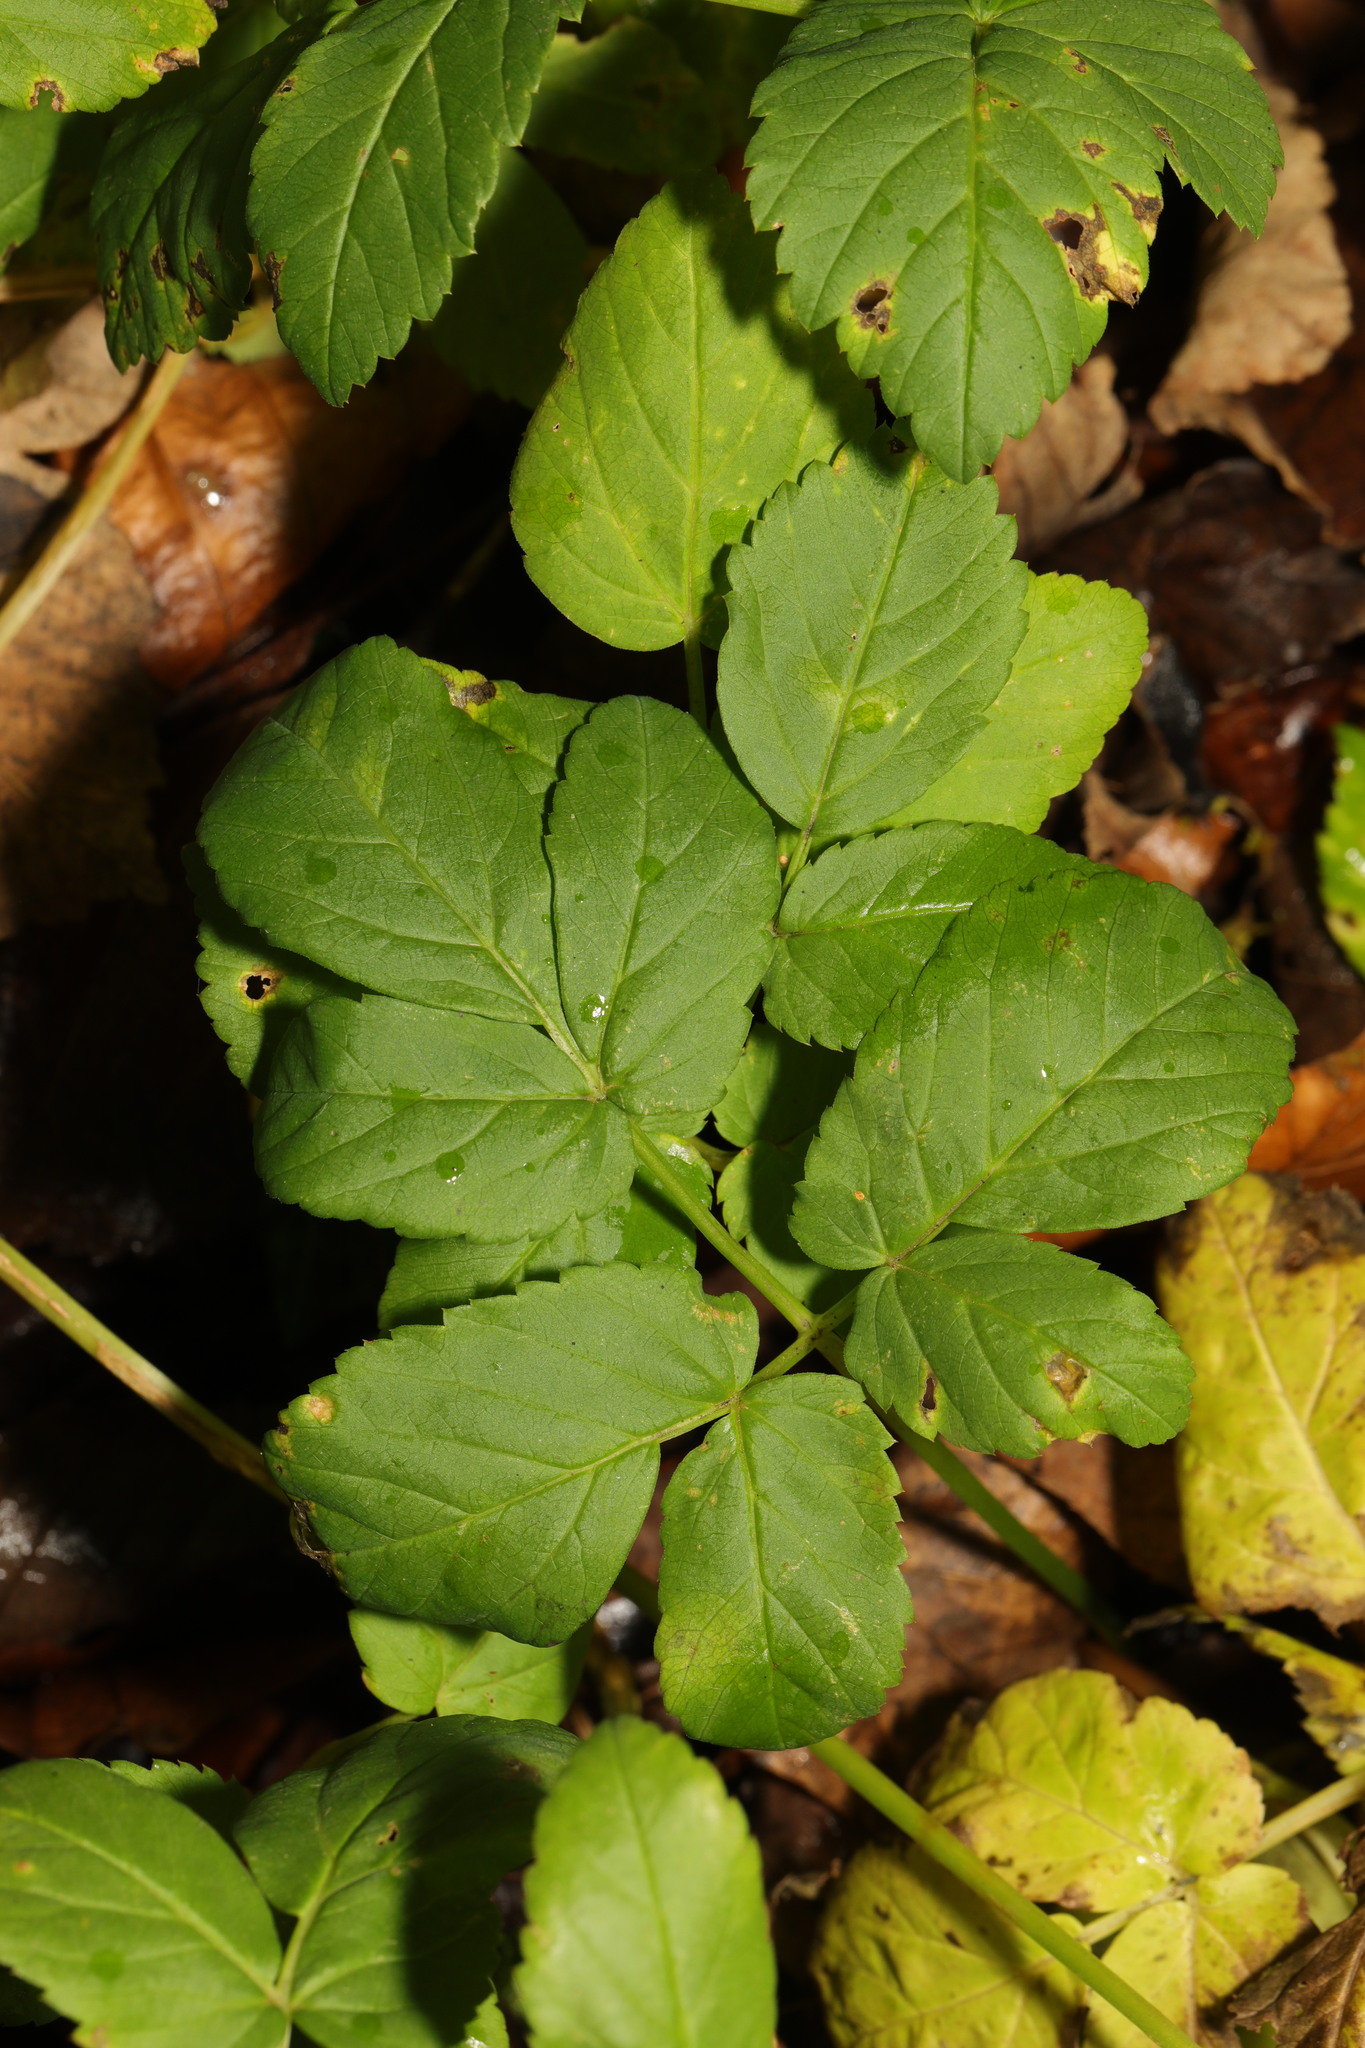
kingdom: Plantae
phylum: Tracheophyta
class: Magnoliopsida
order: Apiales
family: Apiaceae
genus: Aegopodium
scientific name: Aegopodium podagraria
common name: Ground-elder
